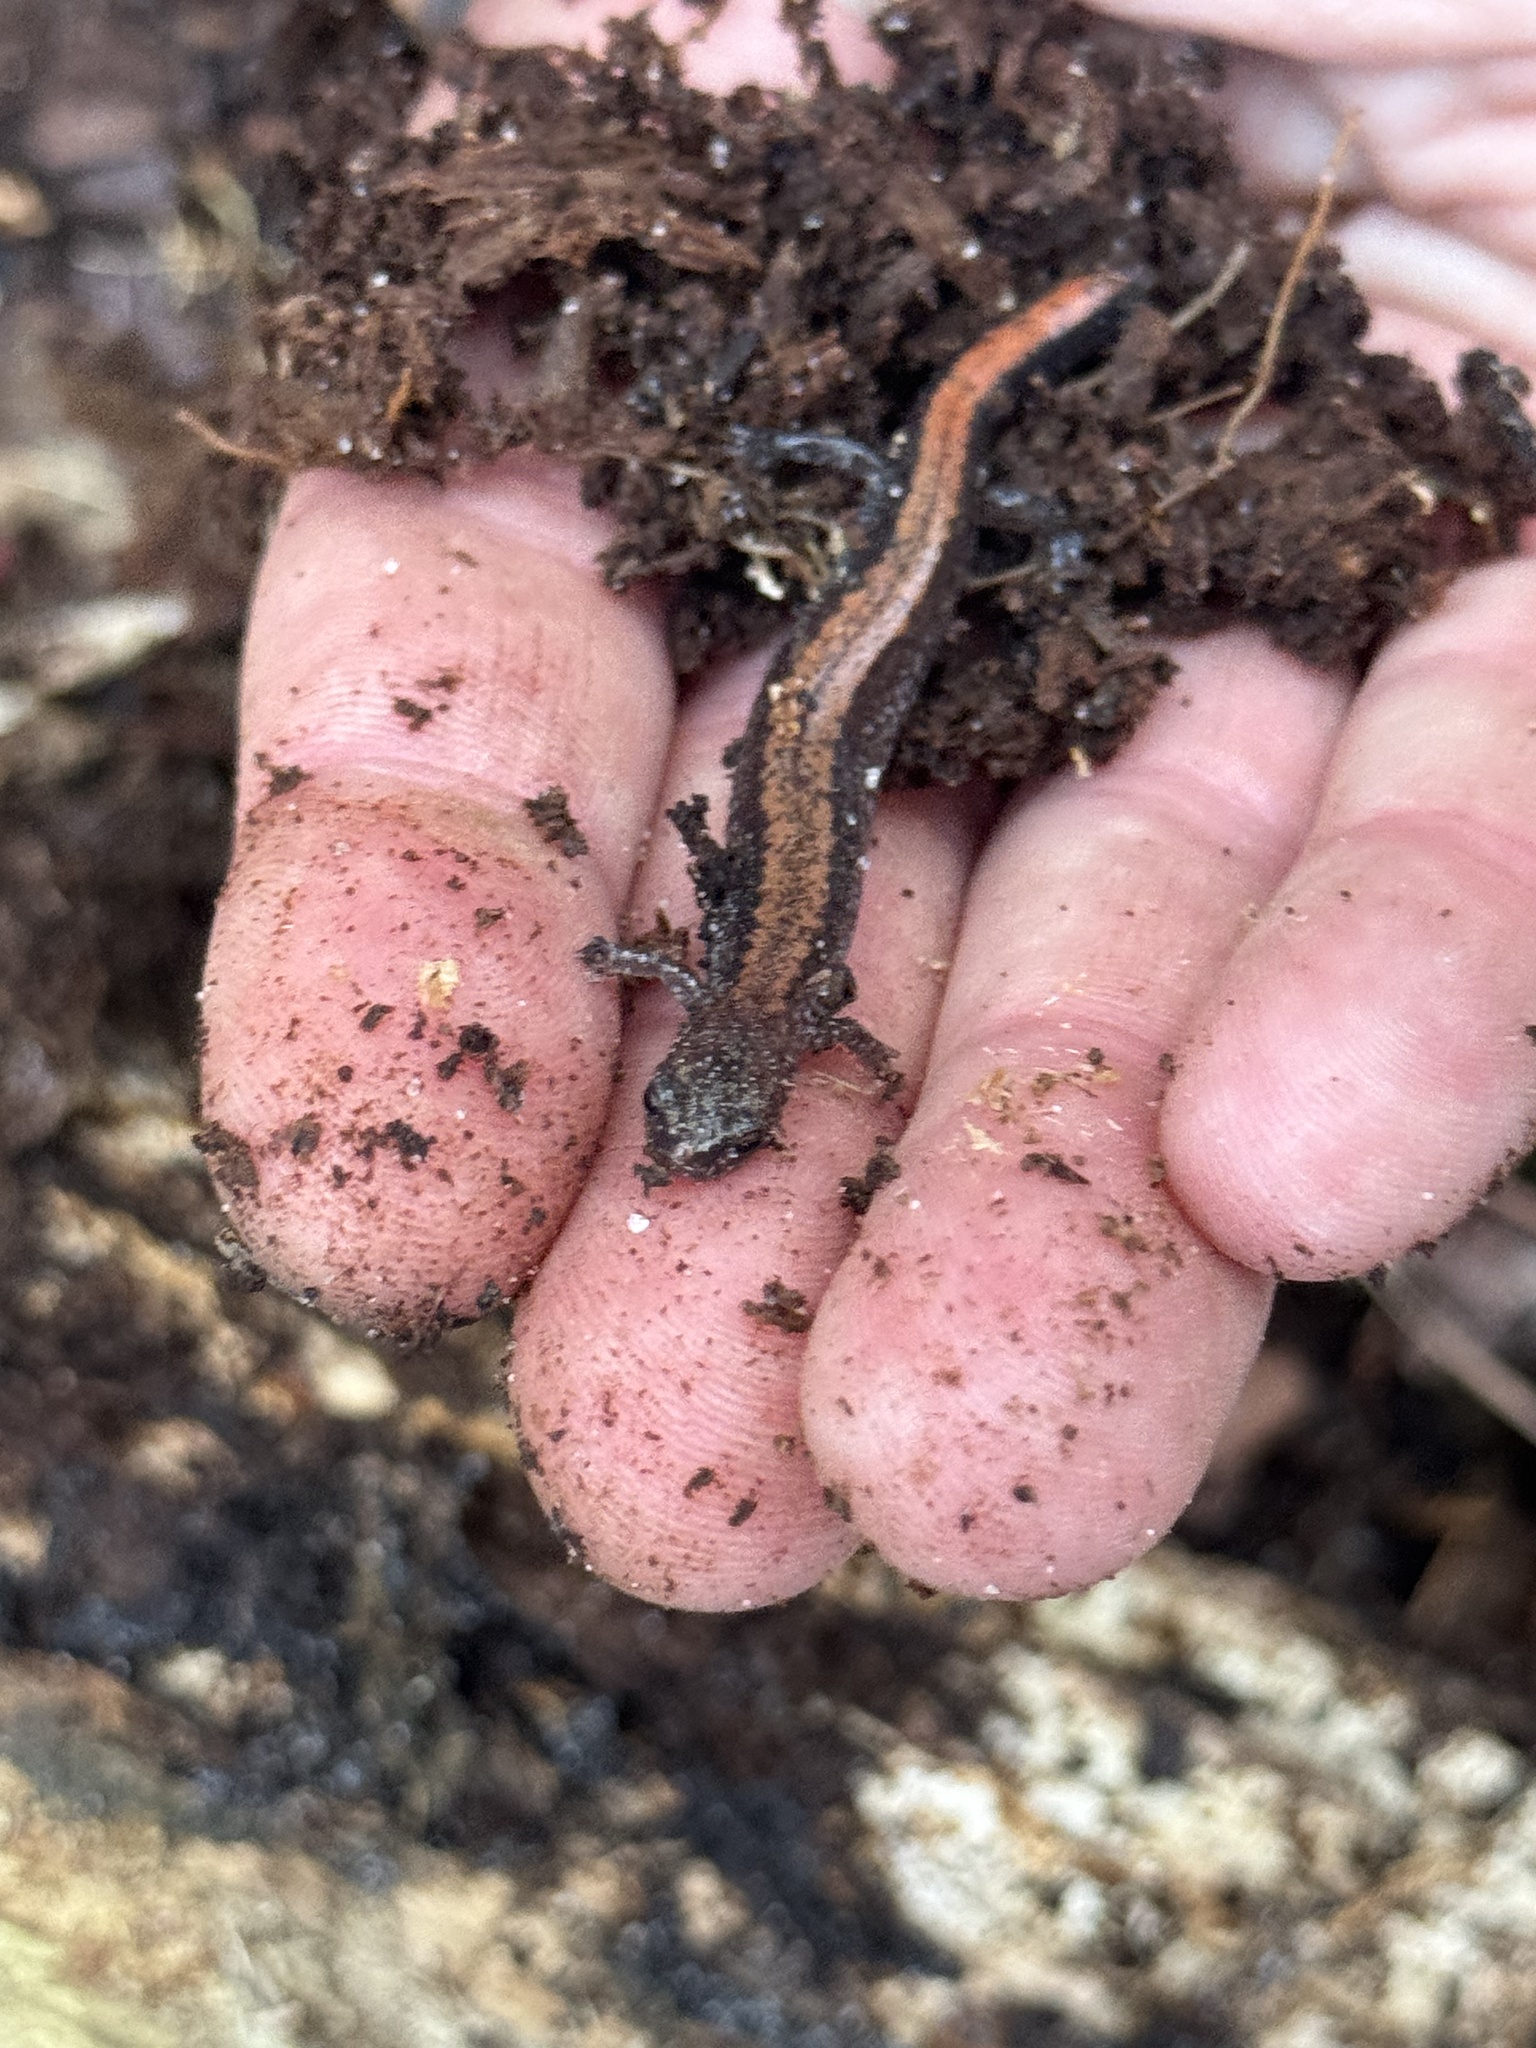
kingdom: Animalia
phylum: Chordata
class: Amphibia
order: Caudata
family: Plethodontidae
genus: Plethodon
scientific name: Plethodon cinereus
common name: Redback salamander
